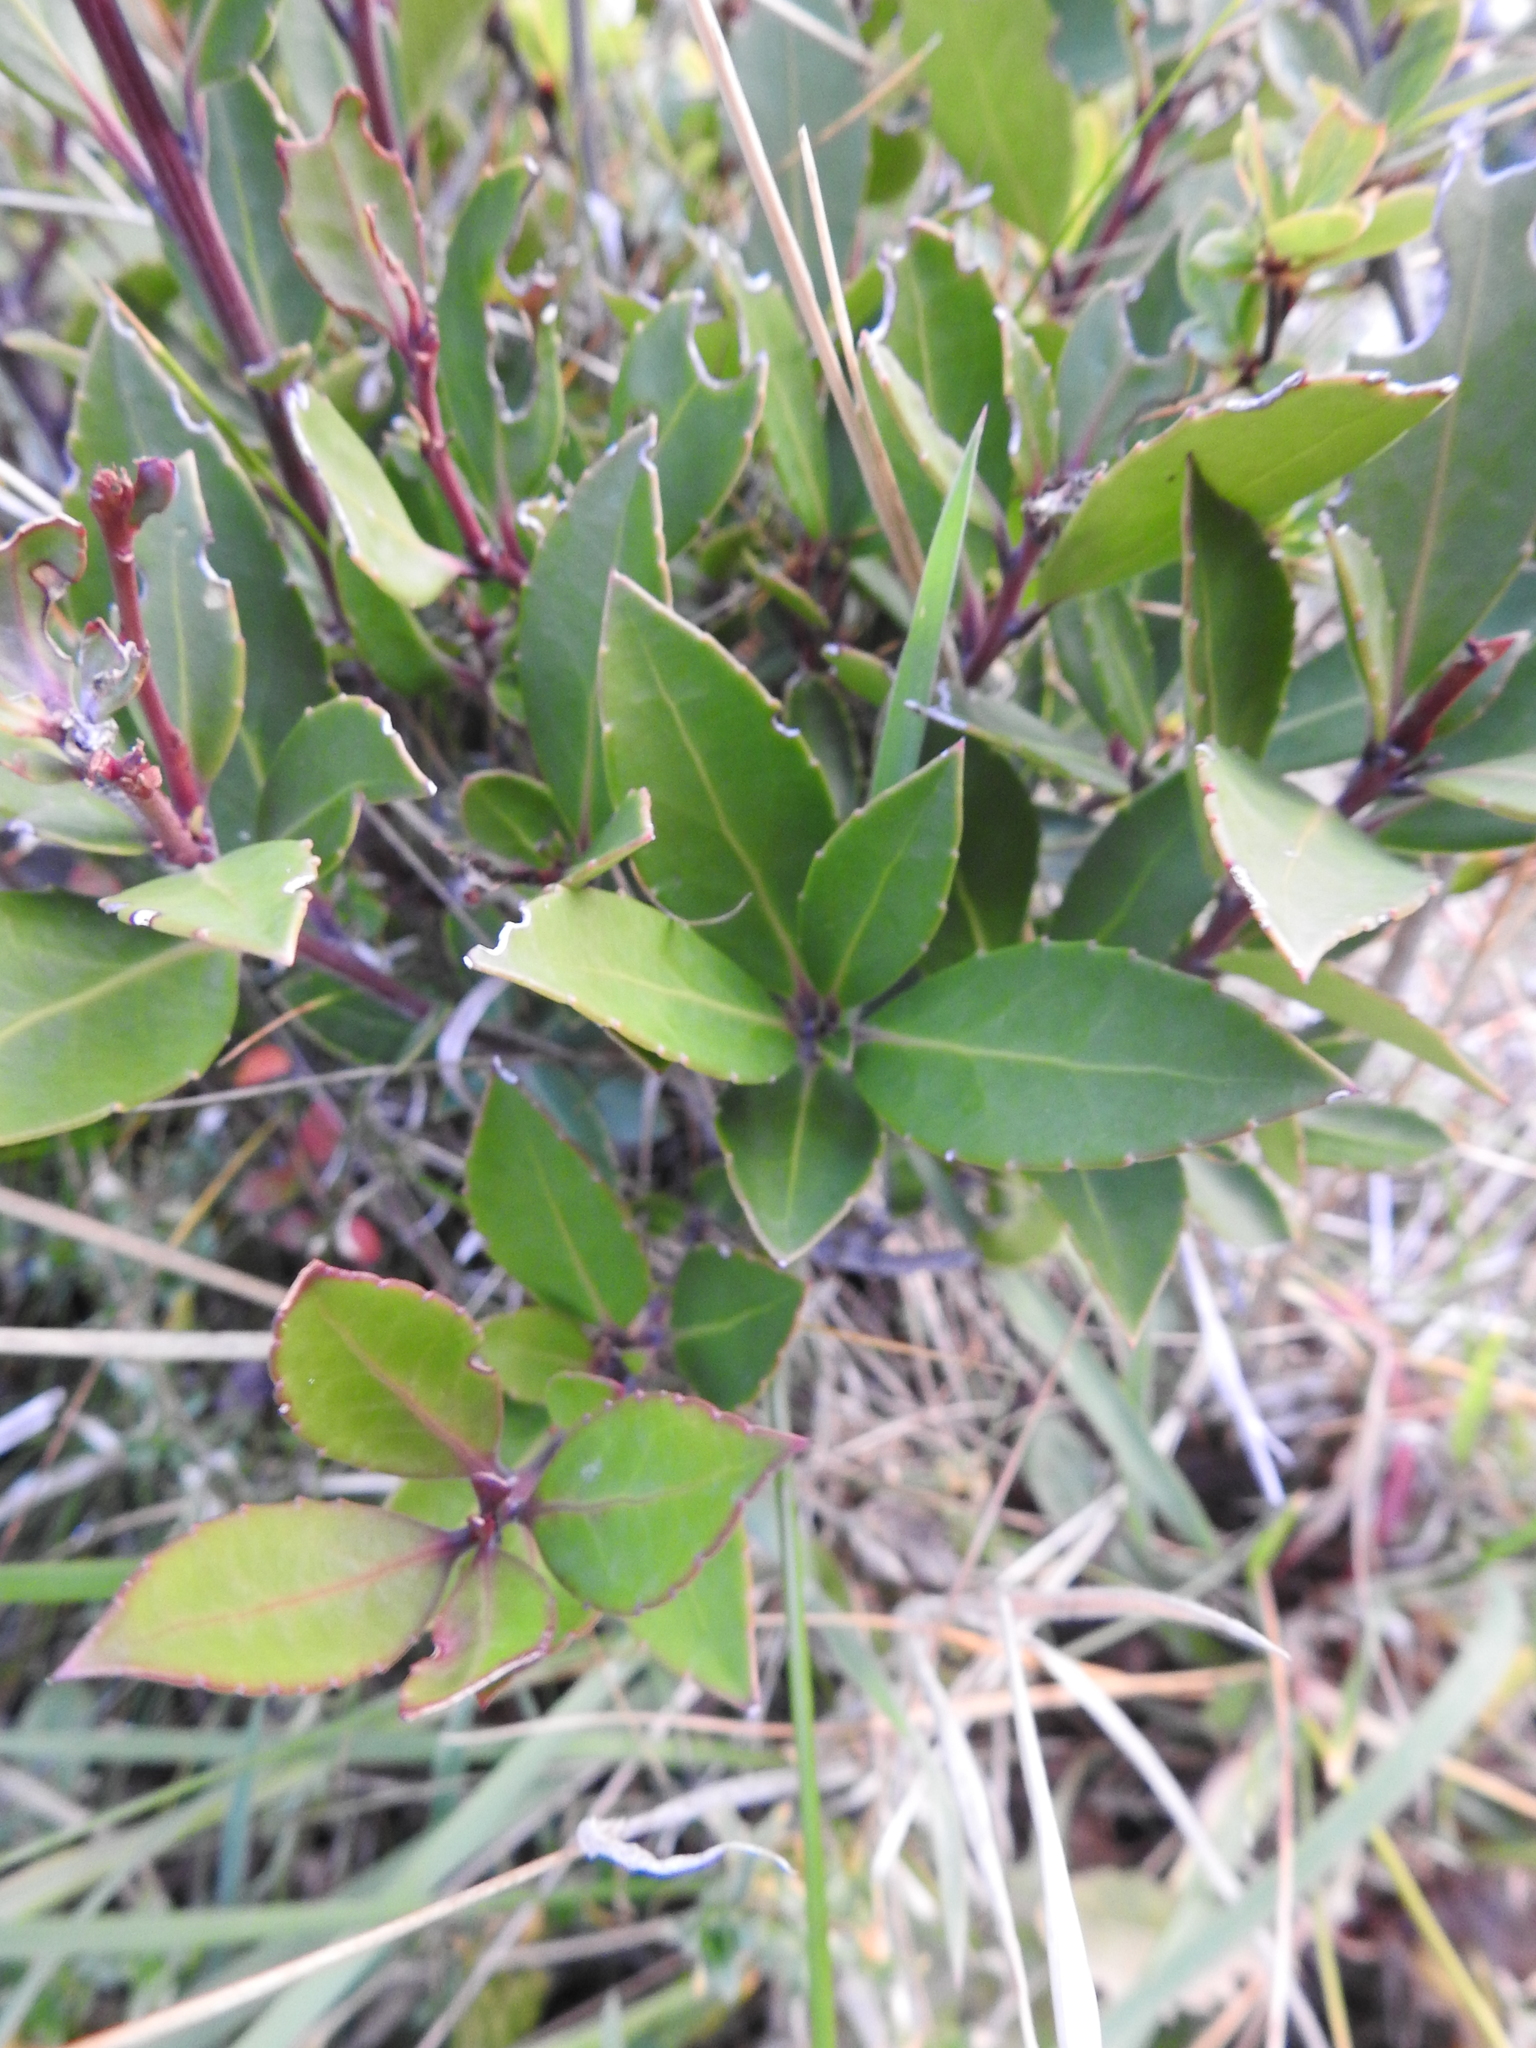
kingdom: Plantae
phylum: Tracheophyta
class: Magnoliopsida
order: Celastrales
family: Celastraceae
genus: Maytenus
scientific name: Maytenus magellanica
